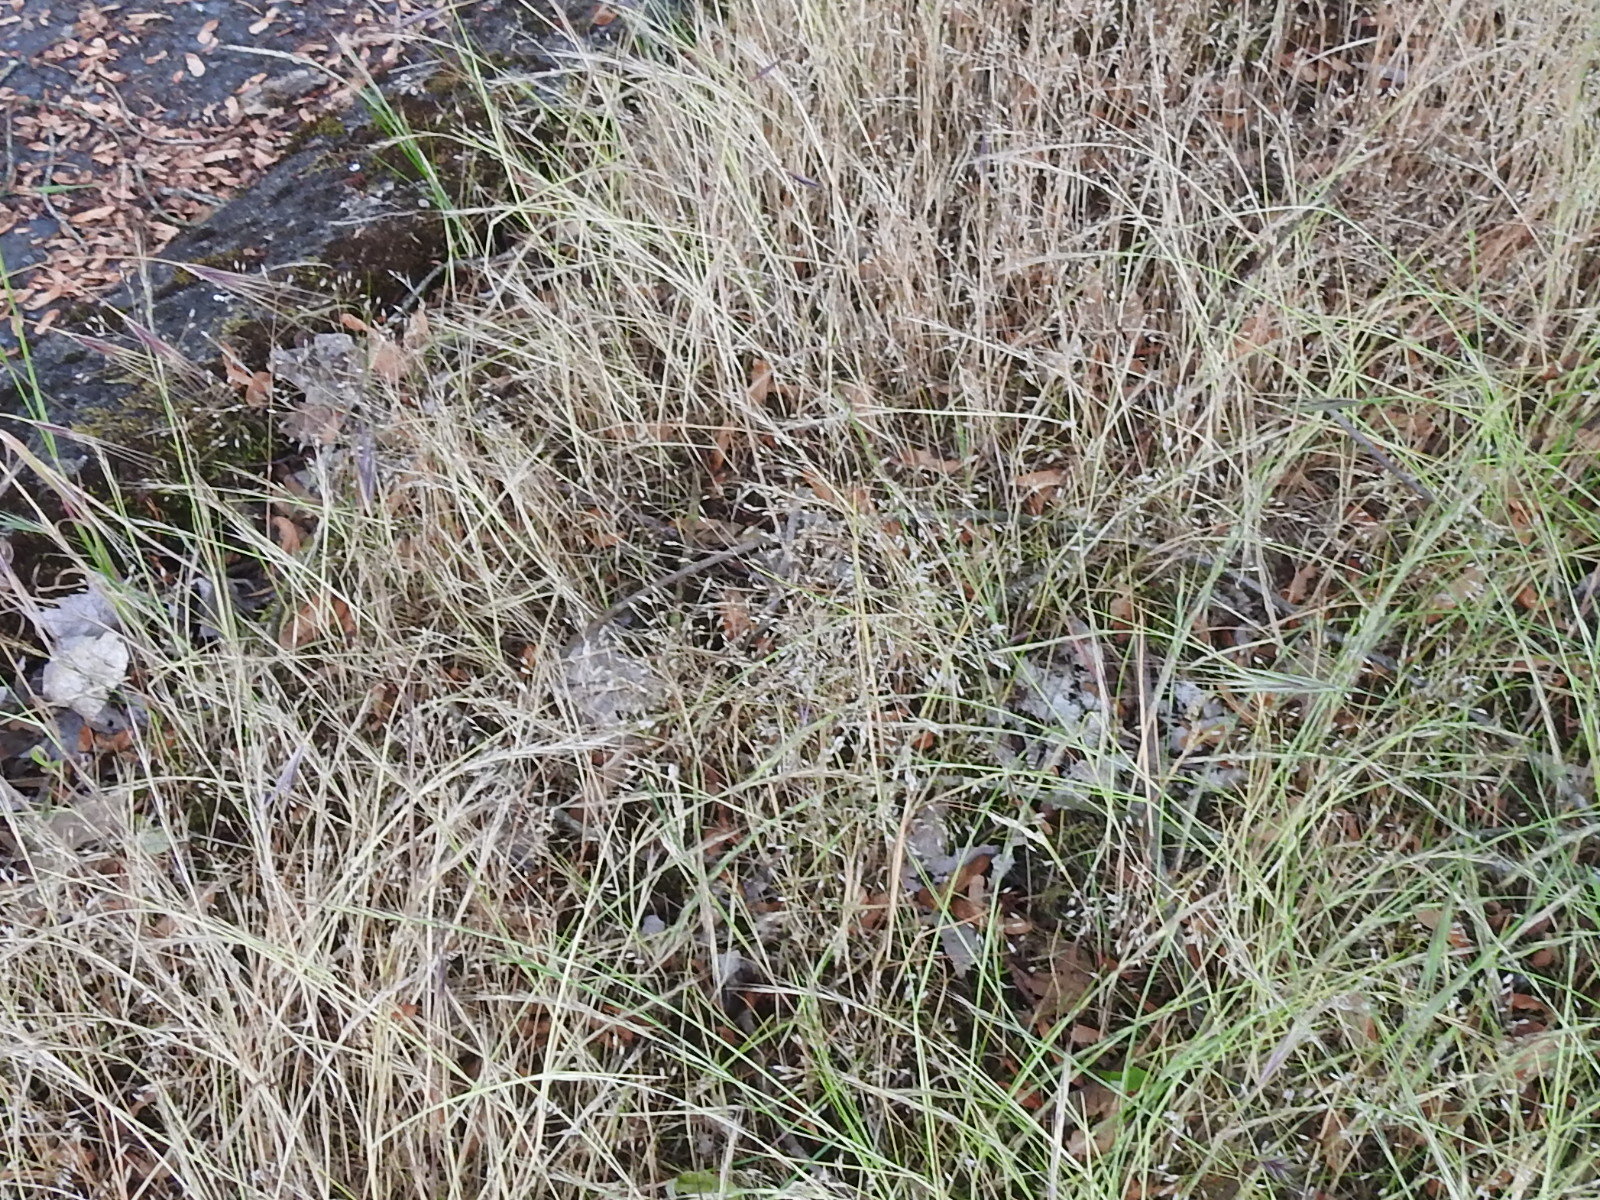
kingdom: Plantae
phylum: Tracheophyta
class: Liliopsida
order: Poales
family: Poaceae
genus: Aira
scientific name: Aira caryophyllea
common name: Silver hairgrass
